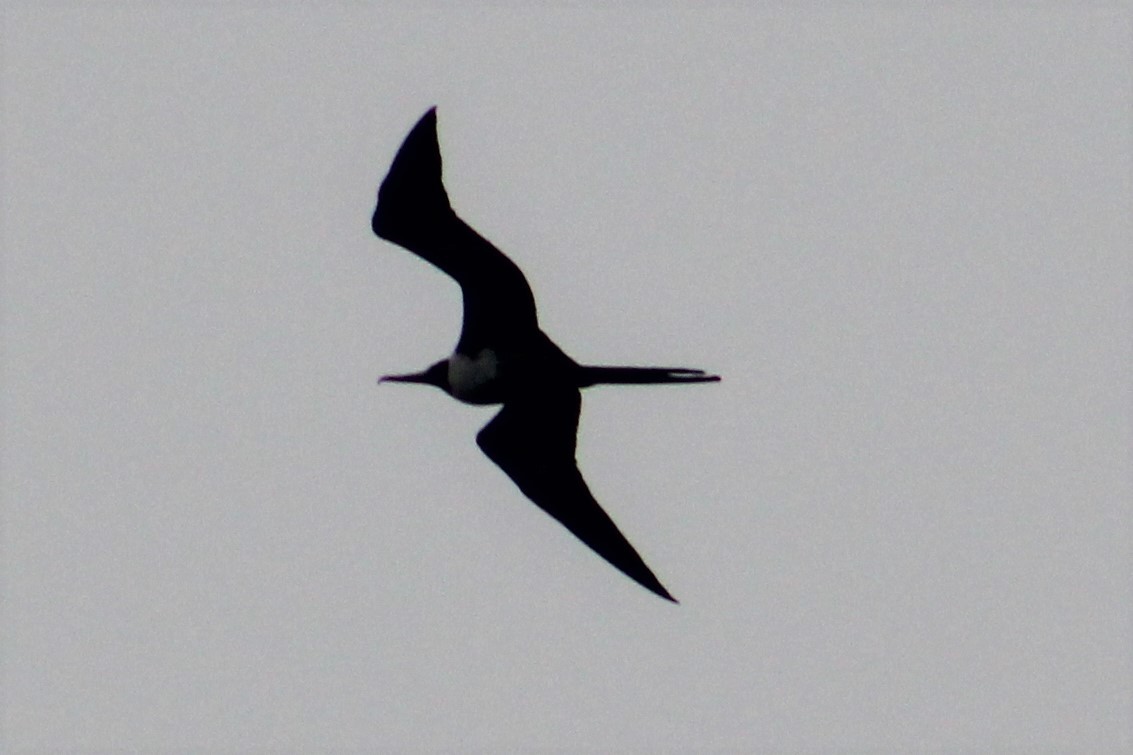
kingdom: Animalia
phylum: Chordata
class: Aves
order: Suliformes
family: Fregatidae
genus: Fregata
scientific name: Fregata magnificens
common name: Magnificent frigatebird
